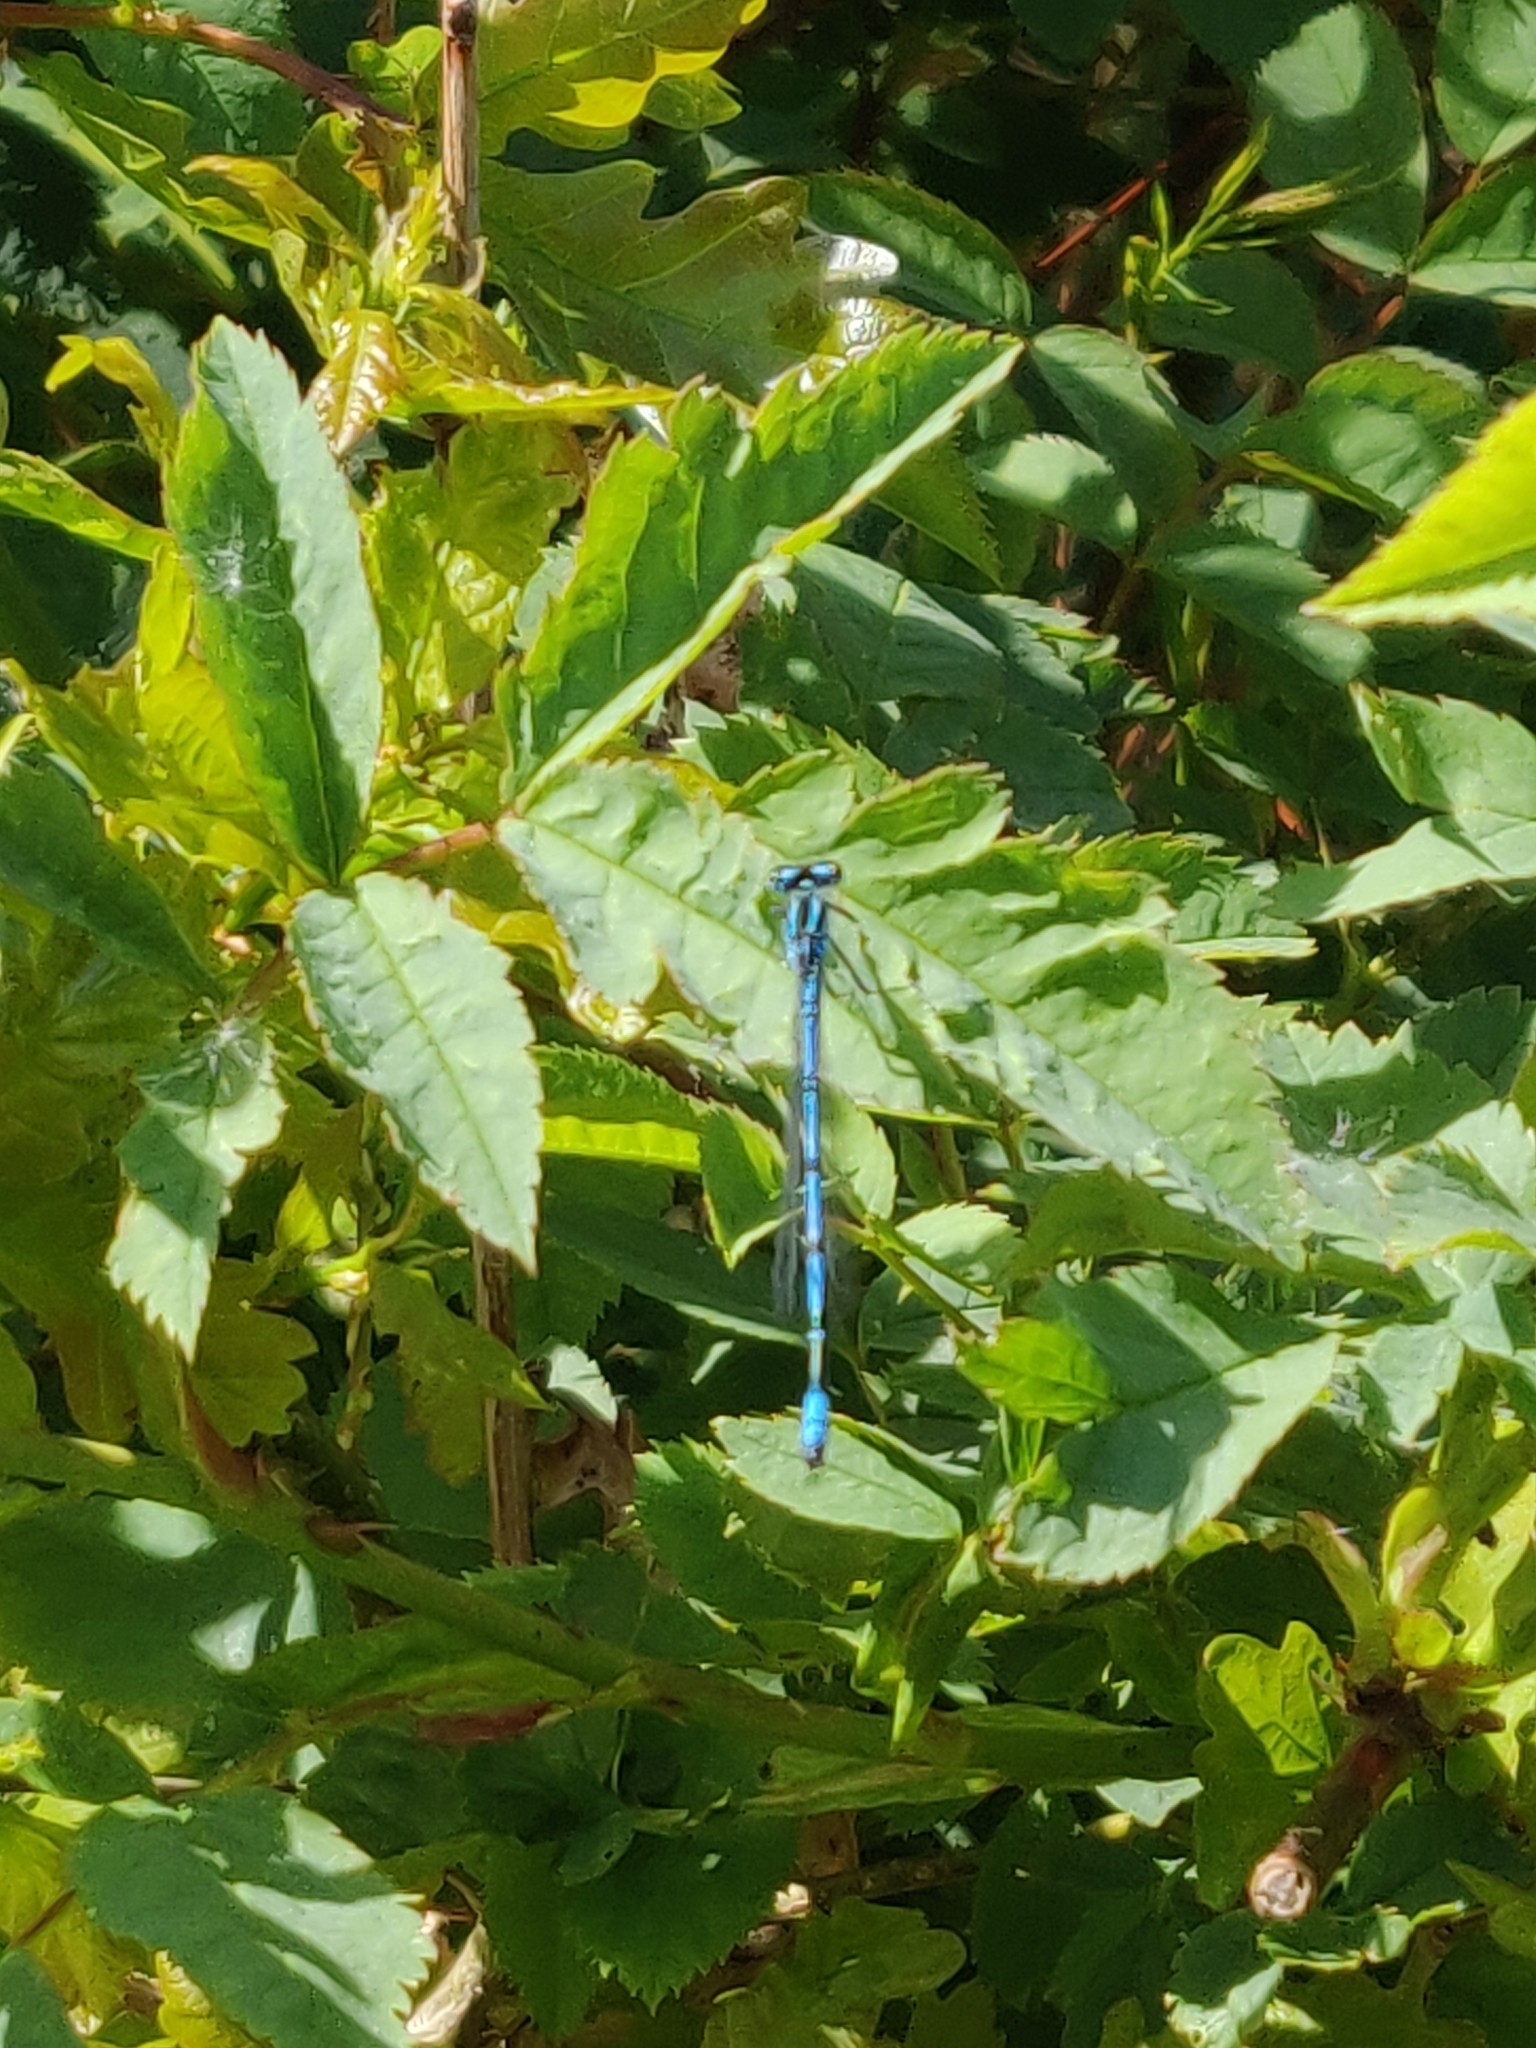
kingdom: Animalia
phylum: Arthropoda
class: Insecta
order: Odonata
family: Coenagrionidae
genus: Coenagrion
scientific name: Coenagrion puella
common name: Azure damselfly
